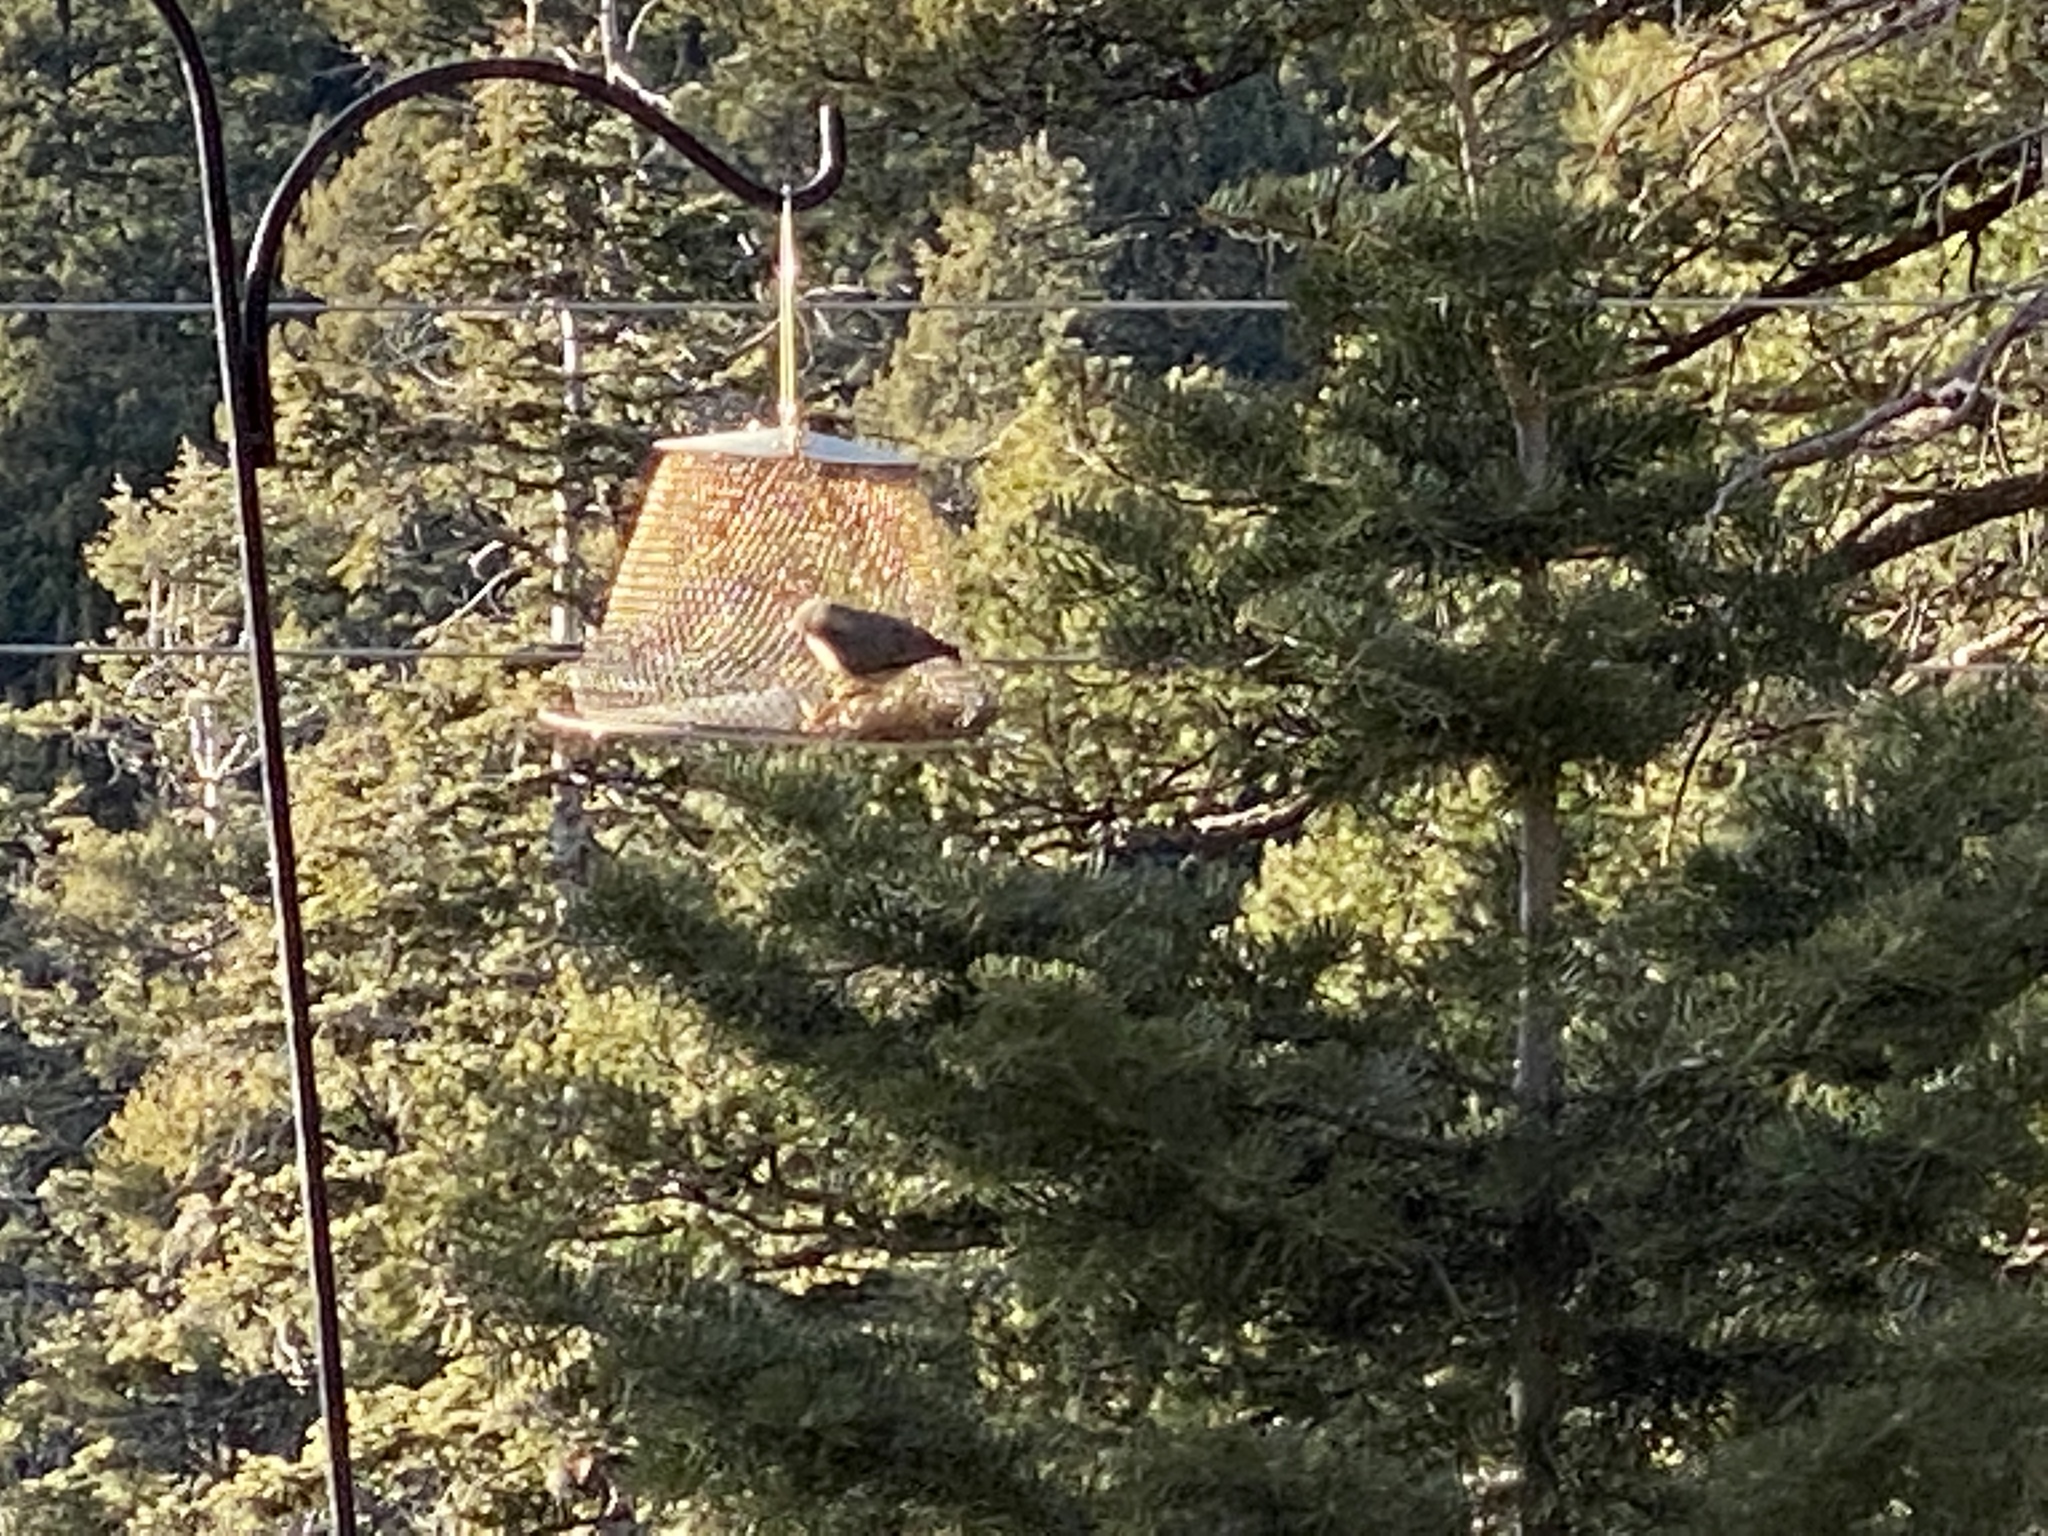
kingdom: Animalia
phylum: Chordata
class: Aves
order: Passeriformes
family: Sittidae
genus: Sitta
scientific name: Sitta pygmaea
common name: Pygmy nuthatch
